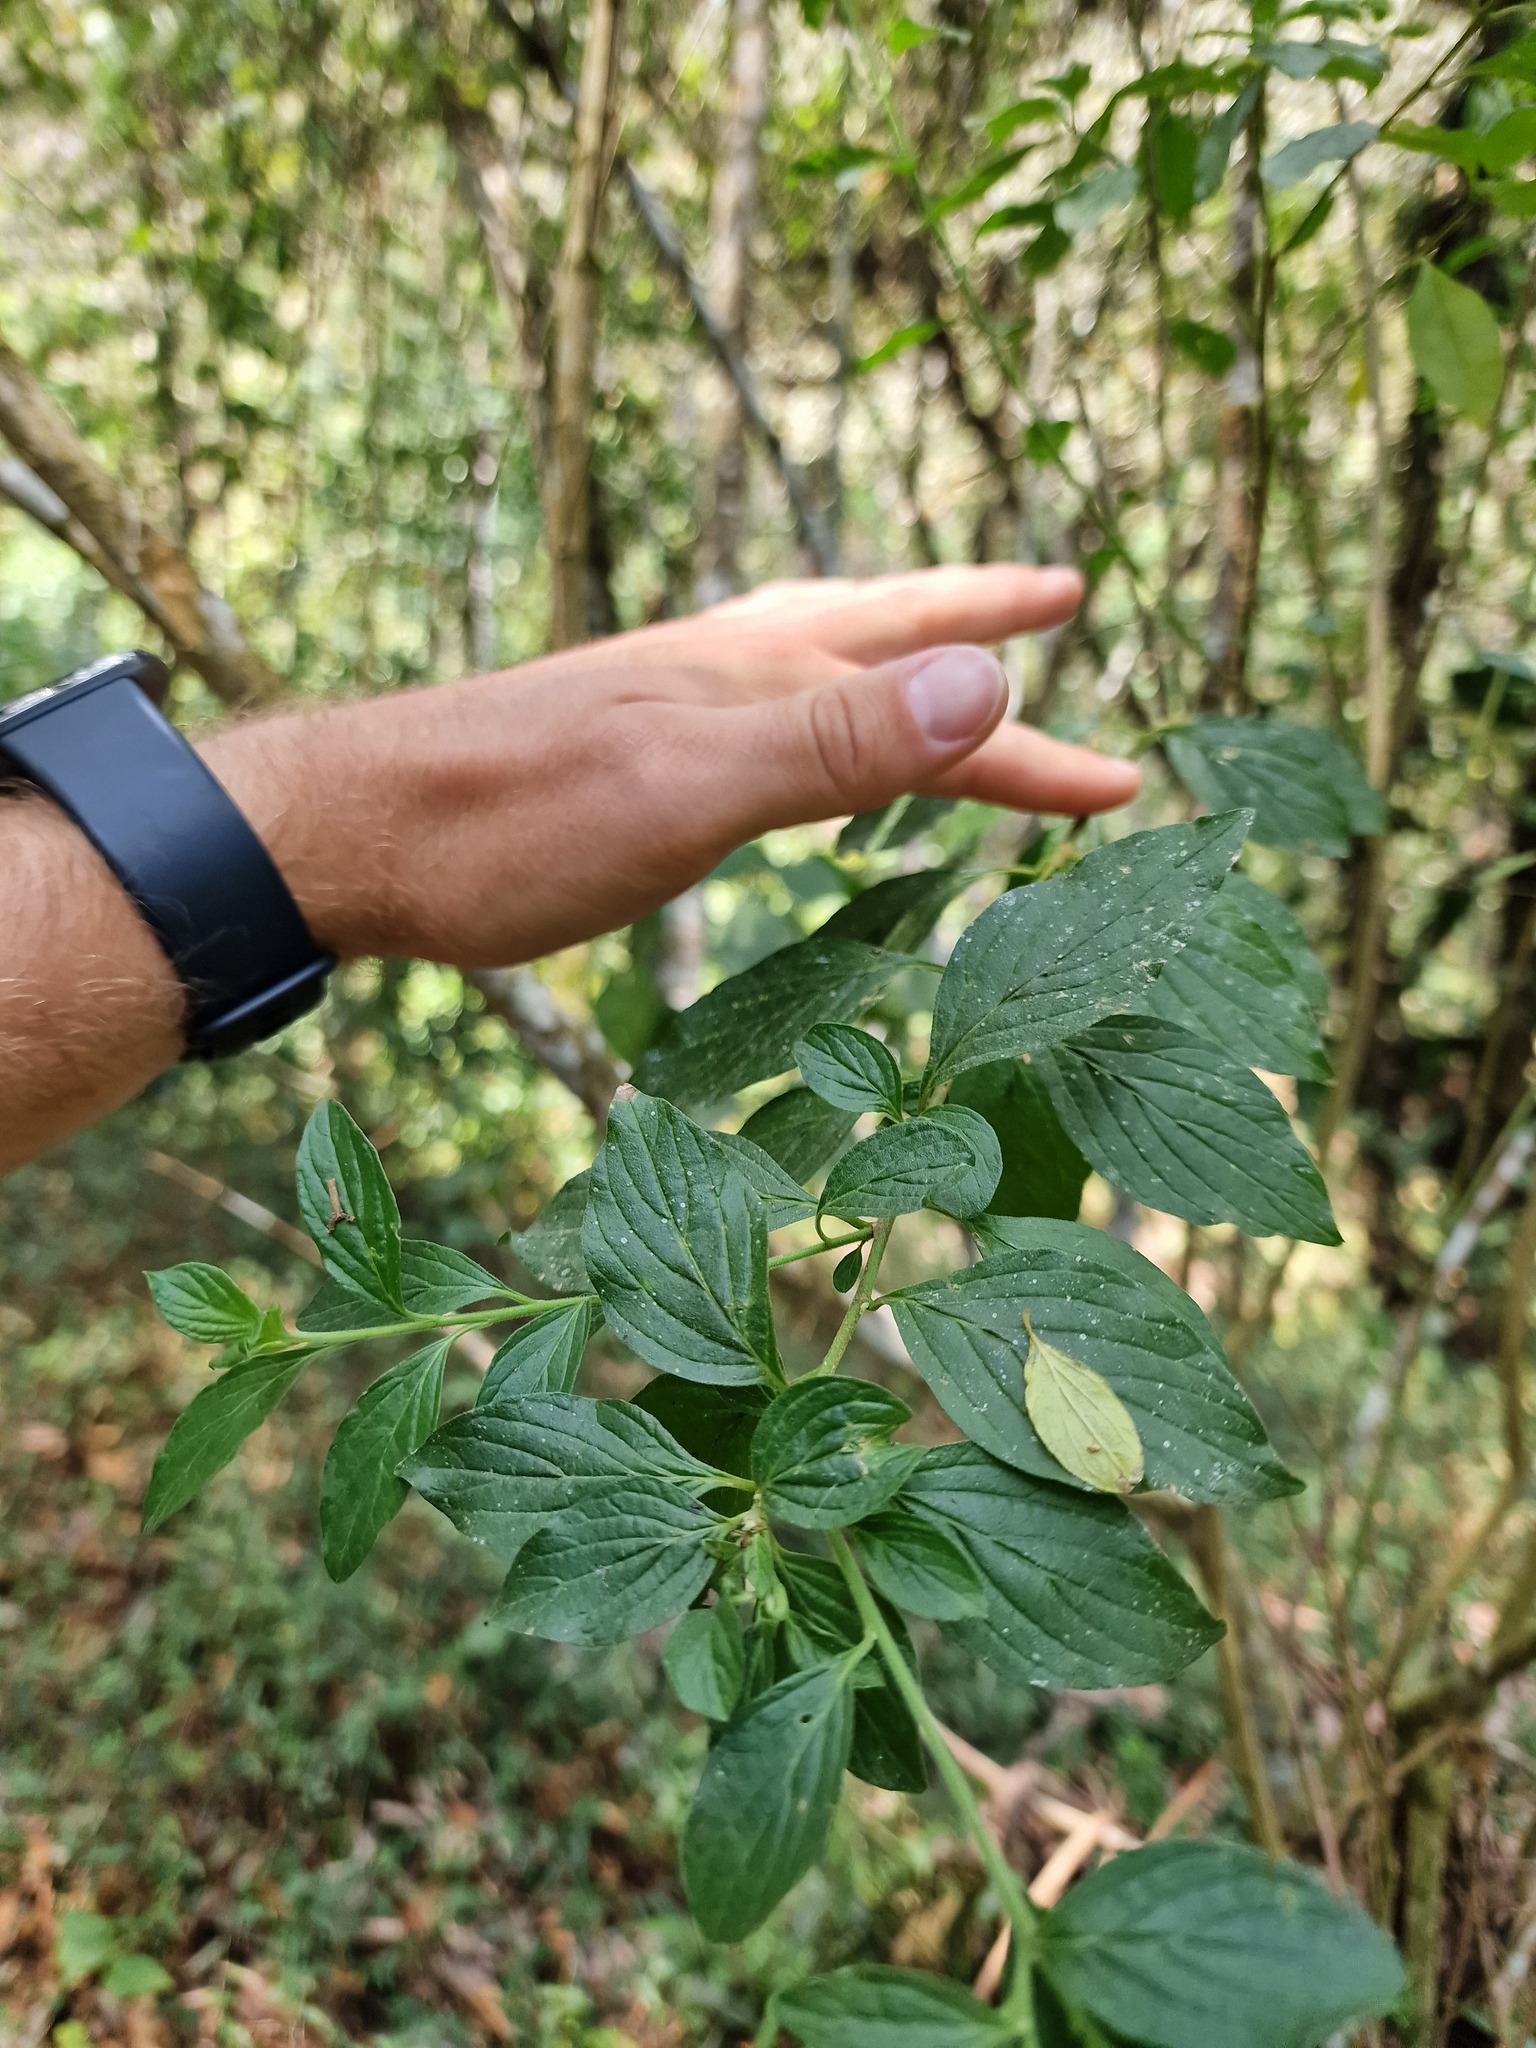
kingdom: Plantae
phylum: Tracheophyta
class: Magnoliopsida
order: Solanales
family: Solanaceae
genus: Streptosolen
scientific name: Streptosolen jamesonii
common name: Marmalade bush
